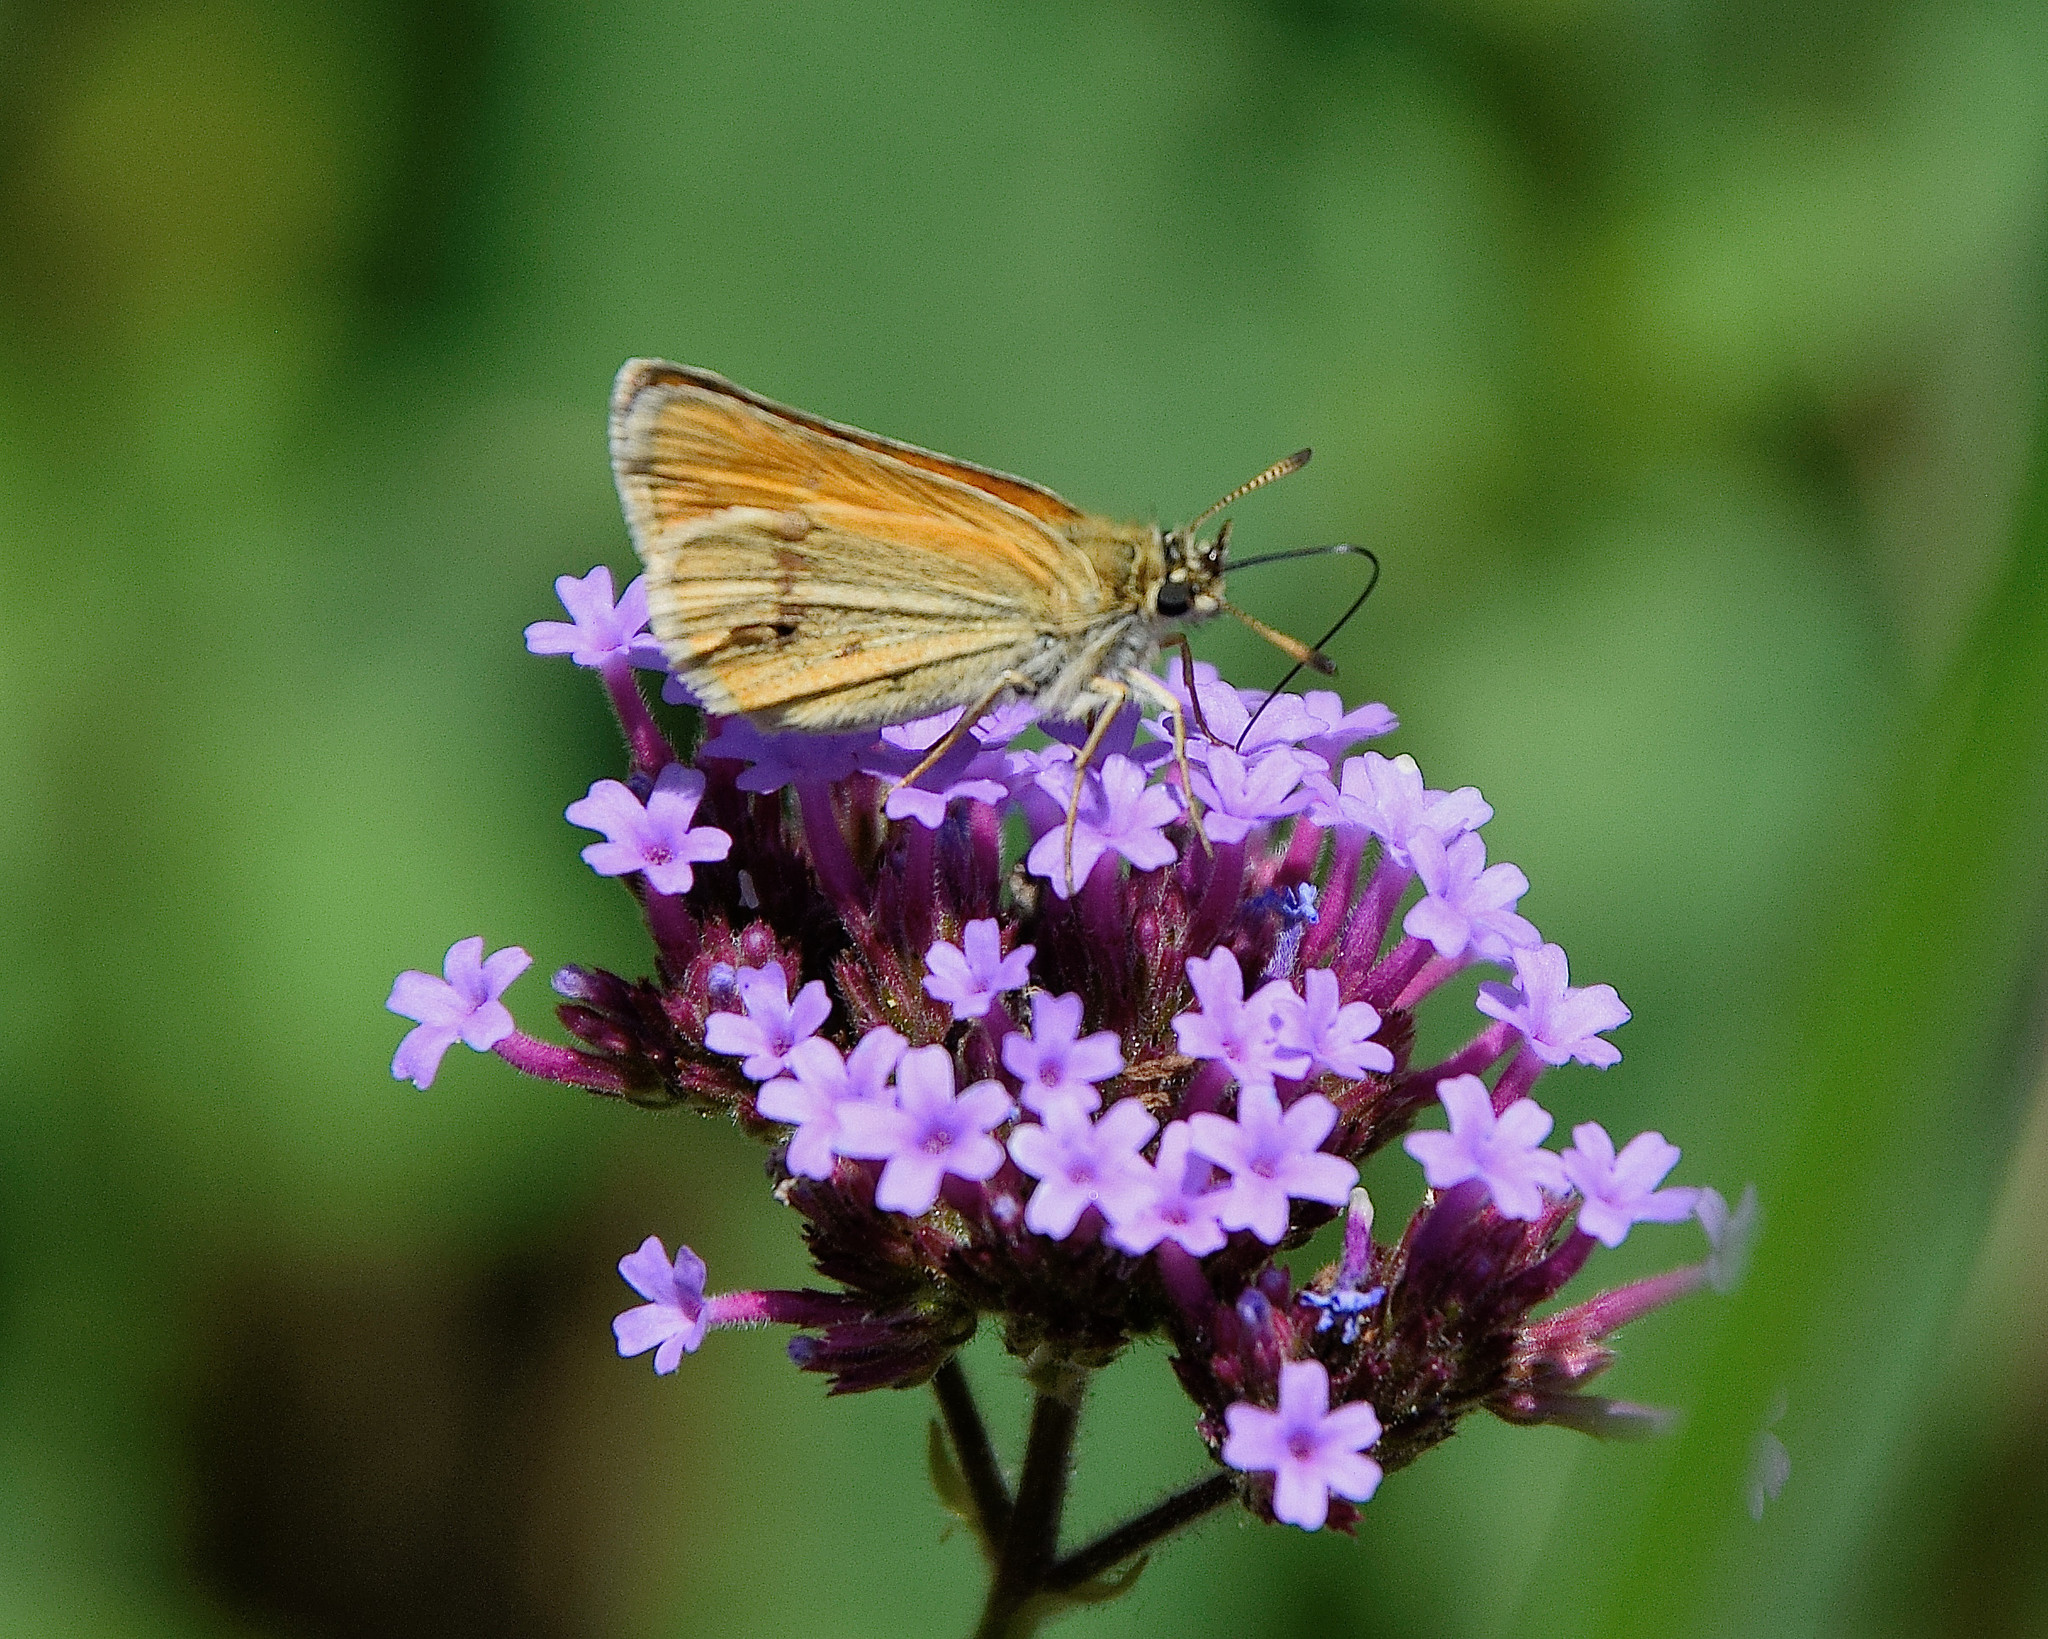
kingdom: Animalia
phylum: Arthropoda
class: Insecta
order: Lepidoptera
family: Hesperiidae
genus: Thymelicus
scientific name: Thymelicus lineola
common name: Essex skipper
